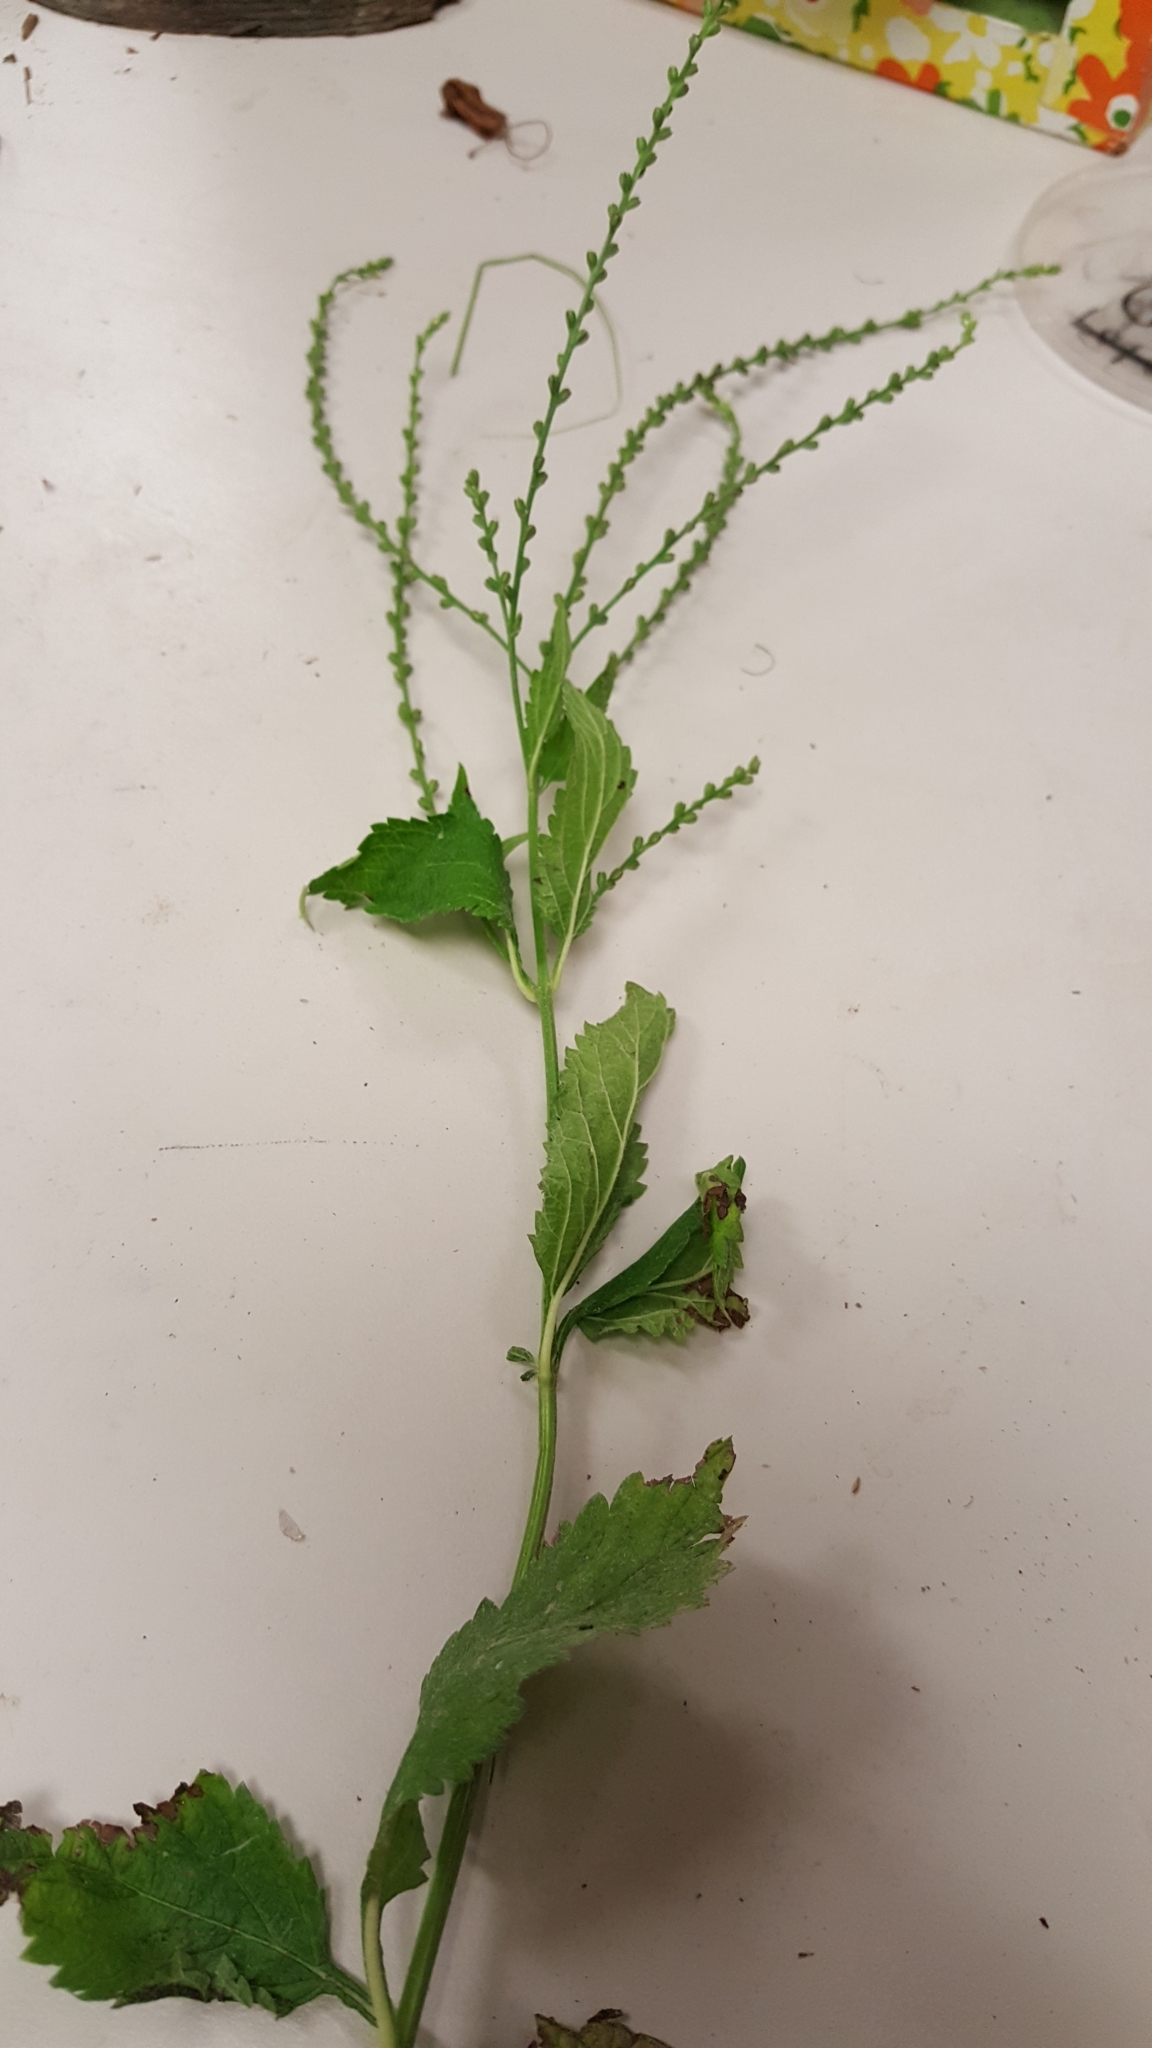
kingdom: Plantae
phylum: Tracheophyta
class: Magnoliopsida
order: Lamiales
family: Verbenaceae
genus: Verbena
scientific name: Verbena urticifolia
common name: Nettle-leaved vervain
